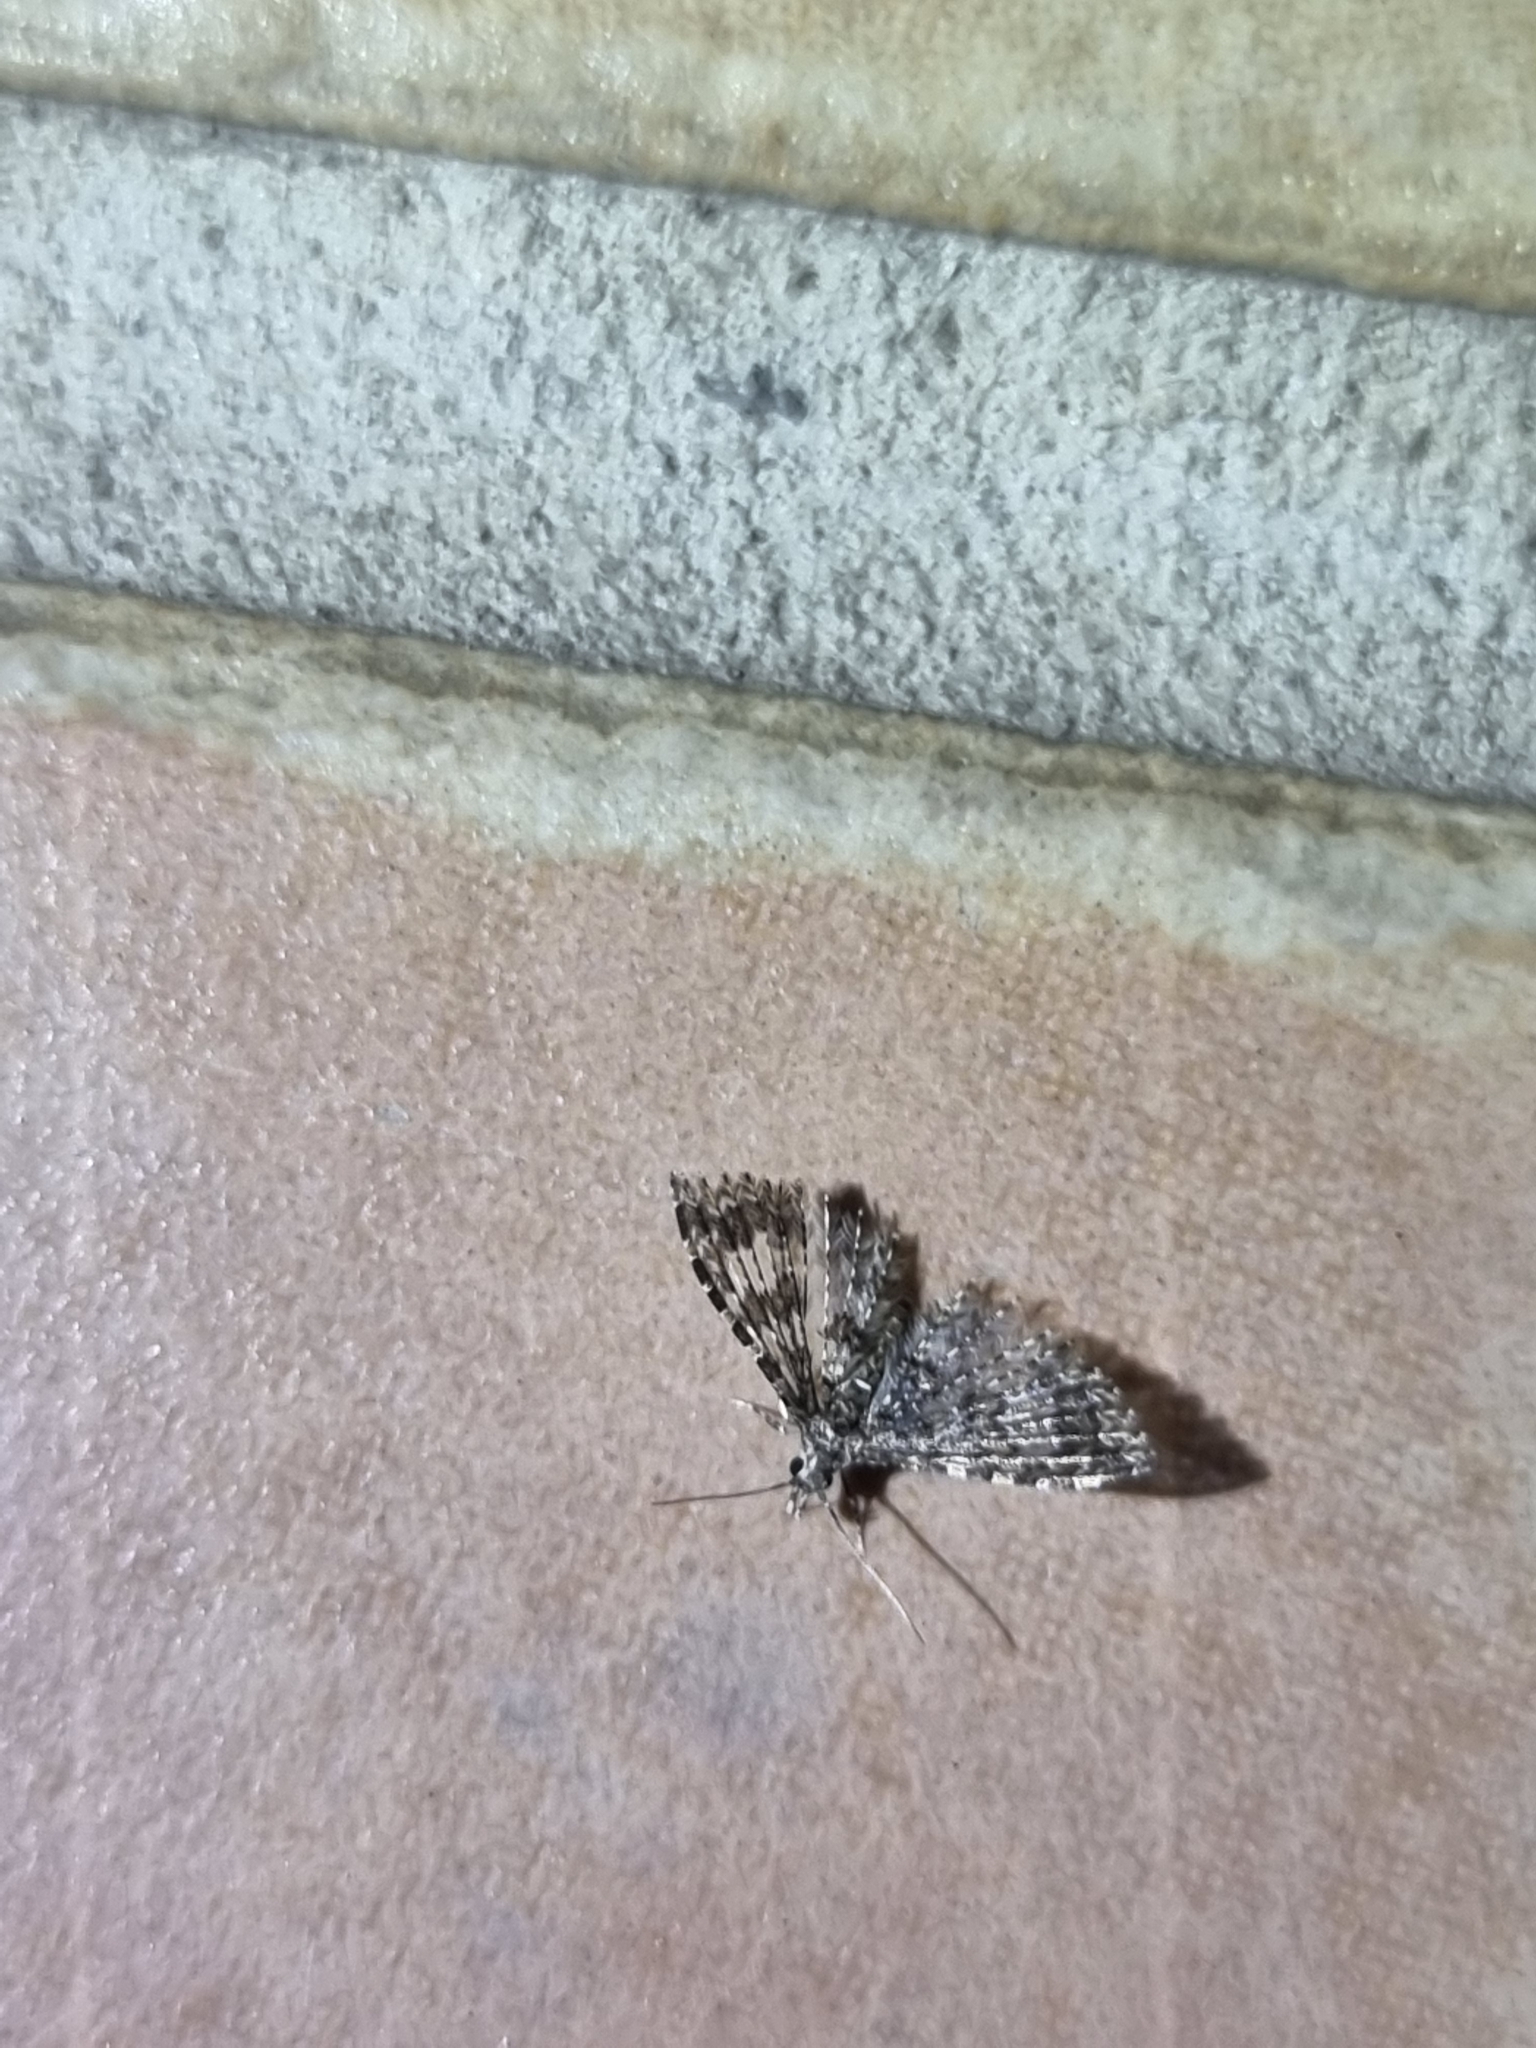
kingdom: Animalia
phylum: Arthropoda
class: Insecta
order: Lepidoptera
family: Alucitidae
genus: Alucita
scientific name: Alucita phricodes
